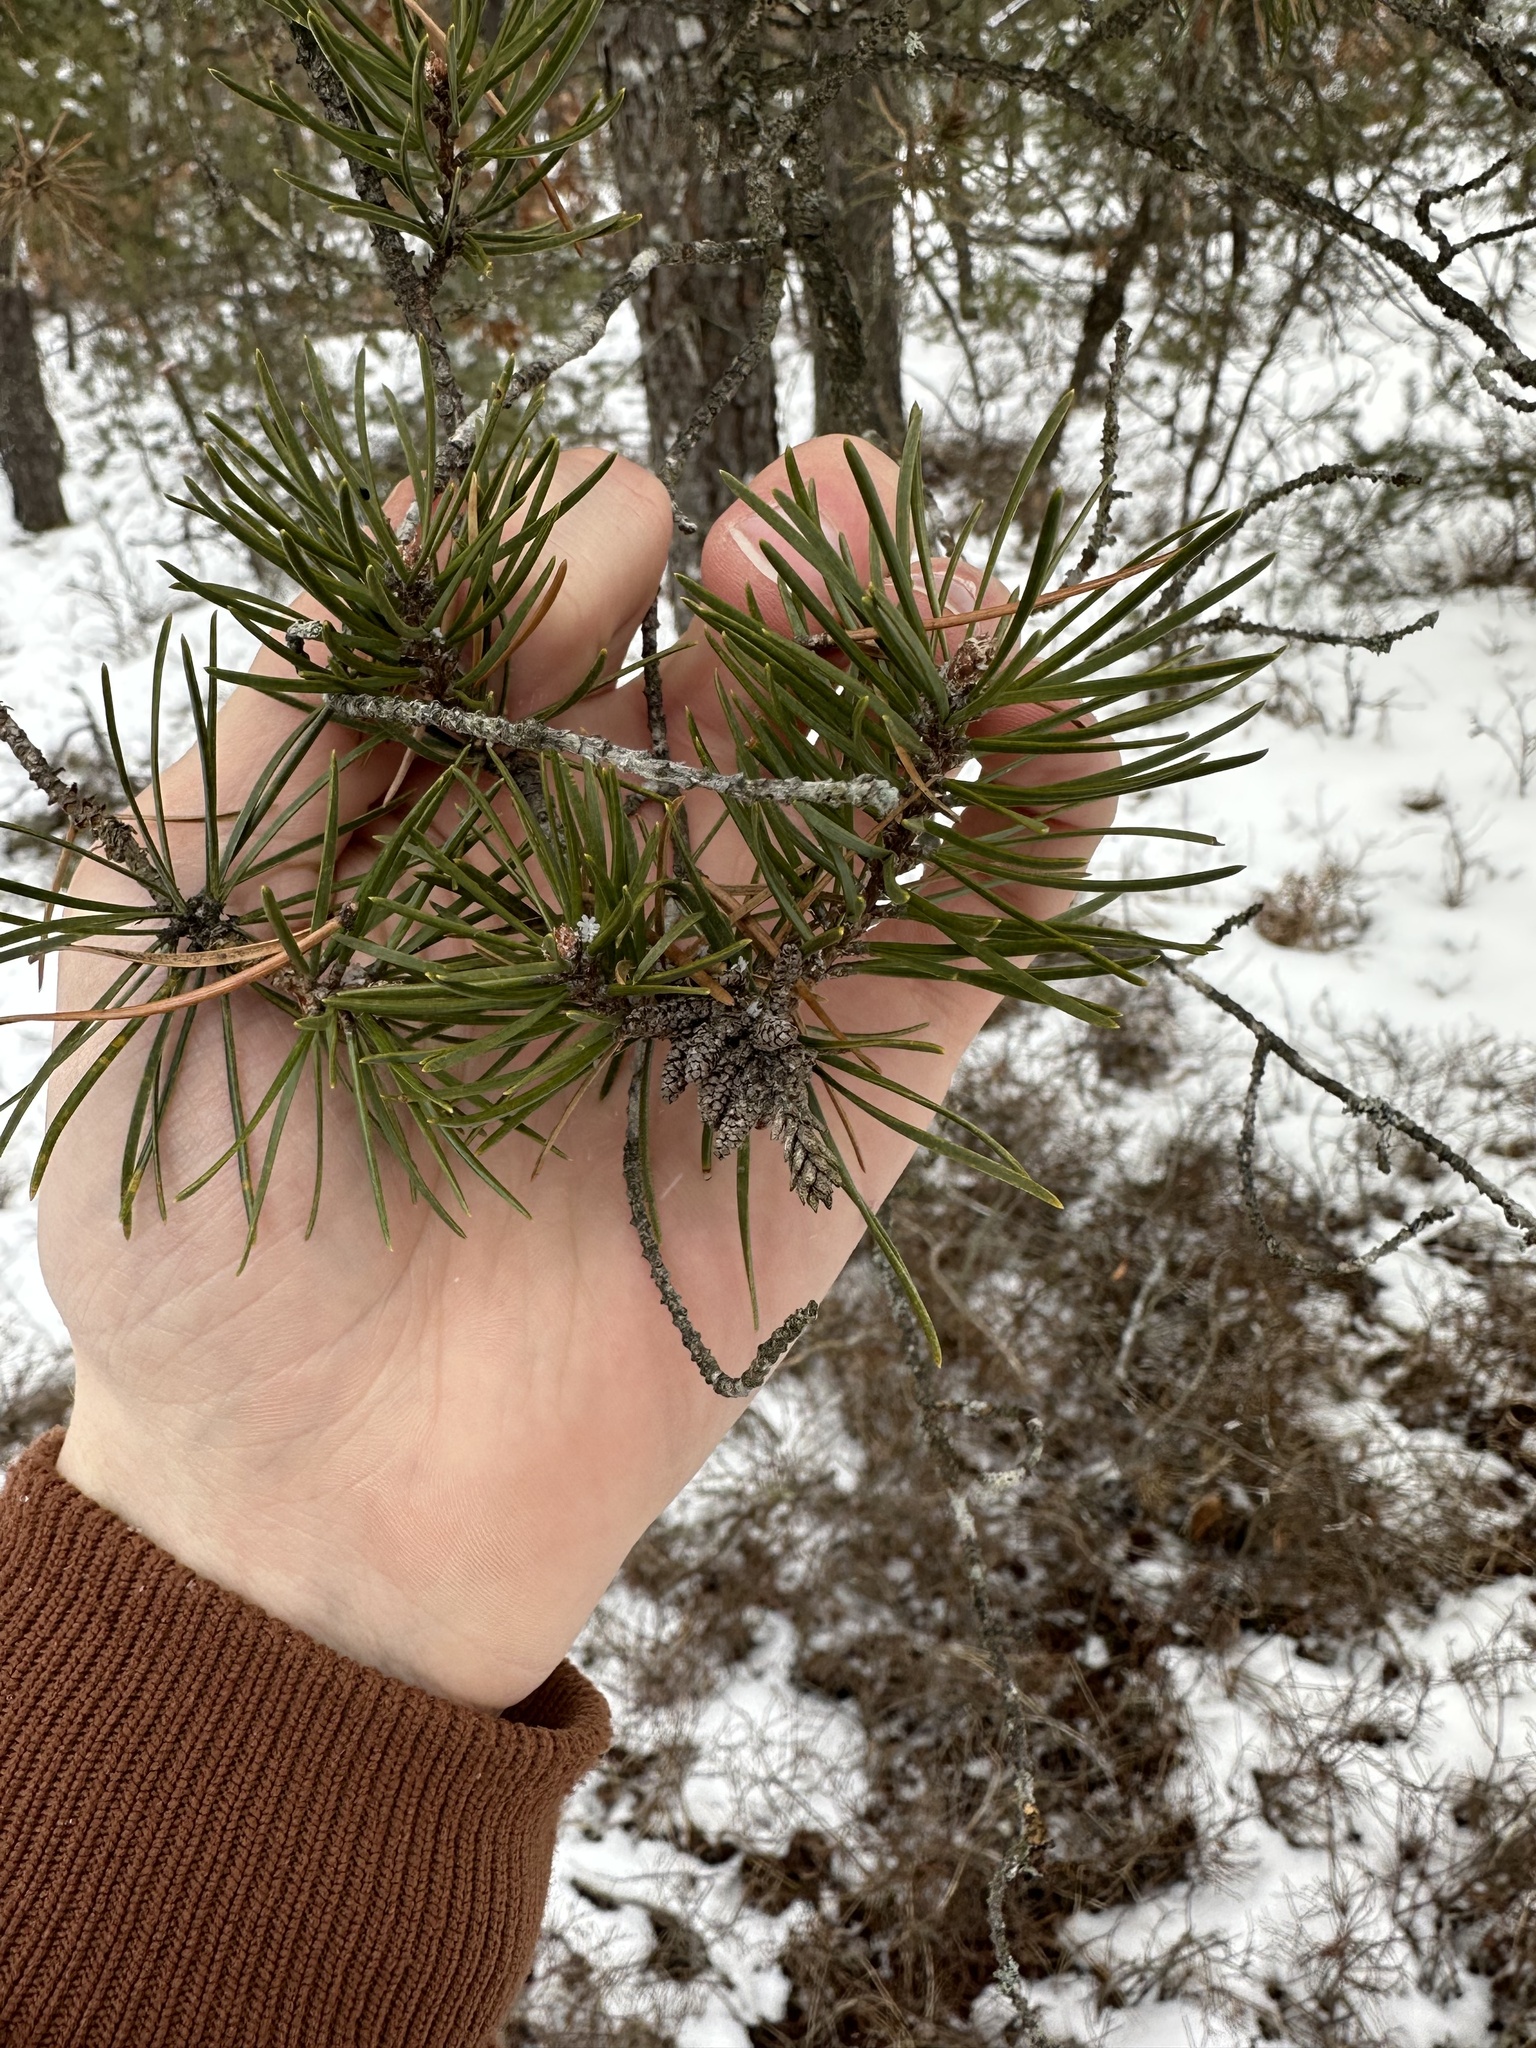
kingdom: Plantae
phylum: Tracheophyta
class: Pinopsida
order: Pinales
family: Pinaceae
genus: Pinus
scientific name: Pinus banksiana
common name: Jack pine
